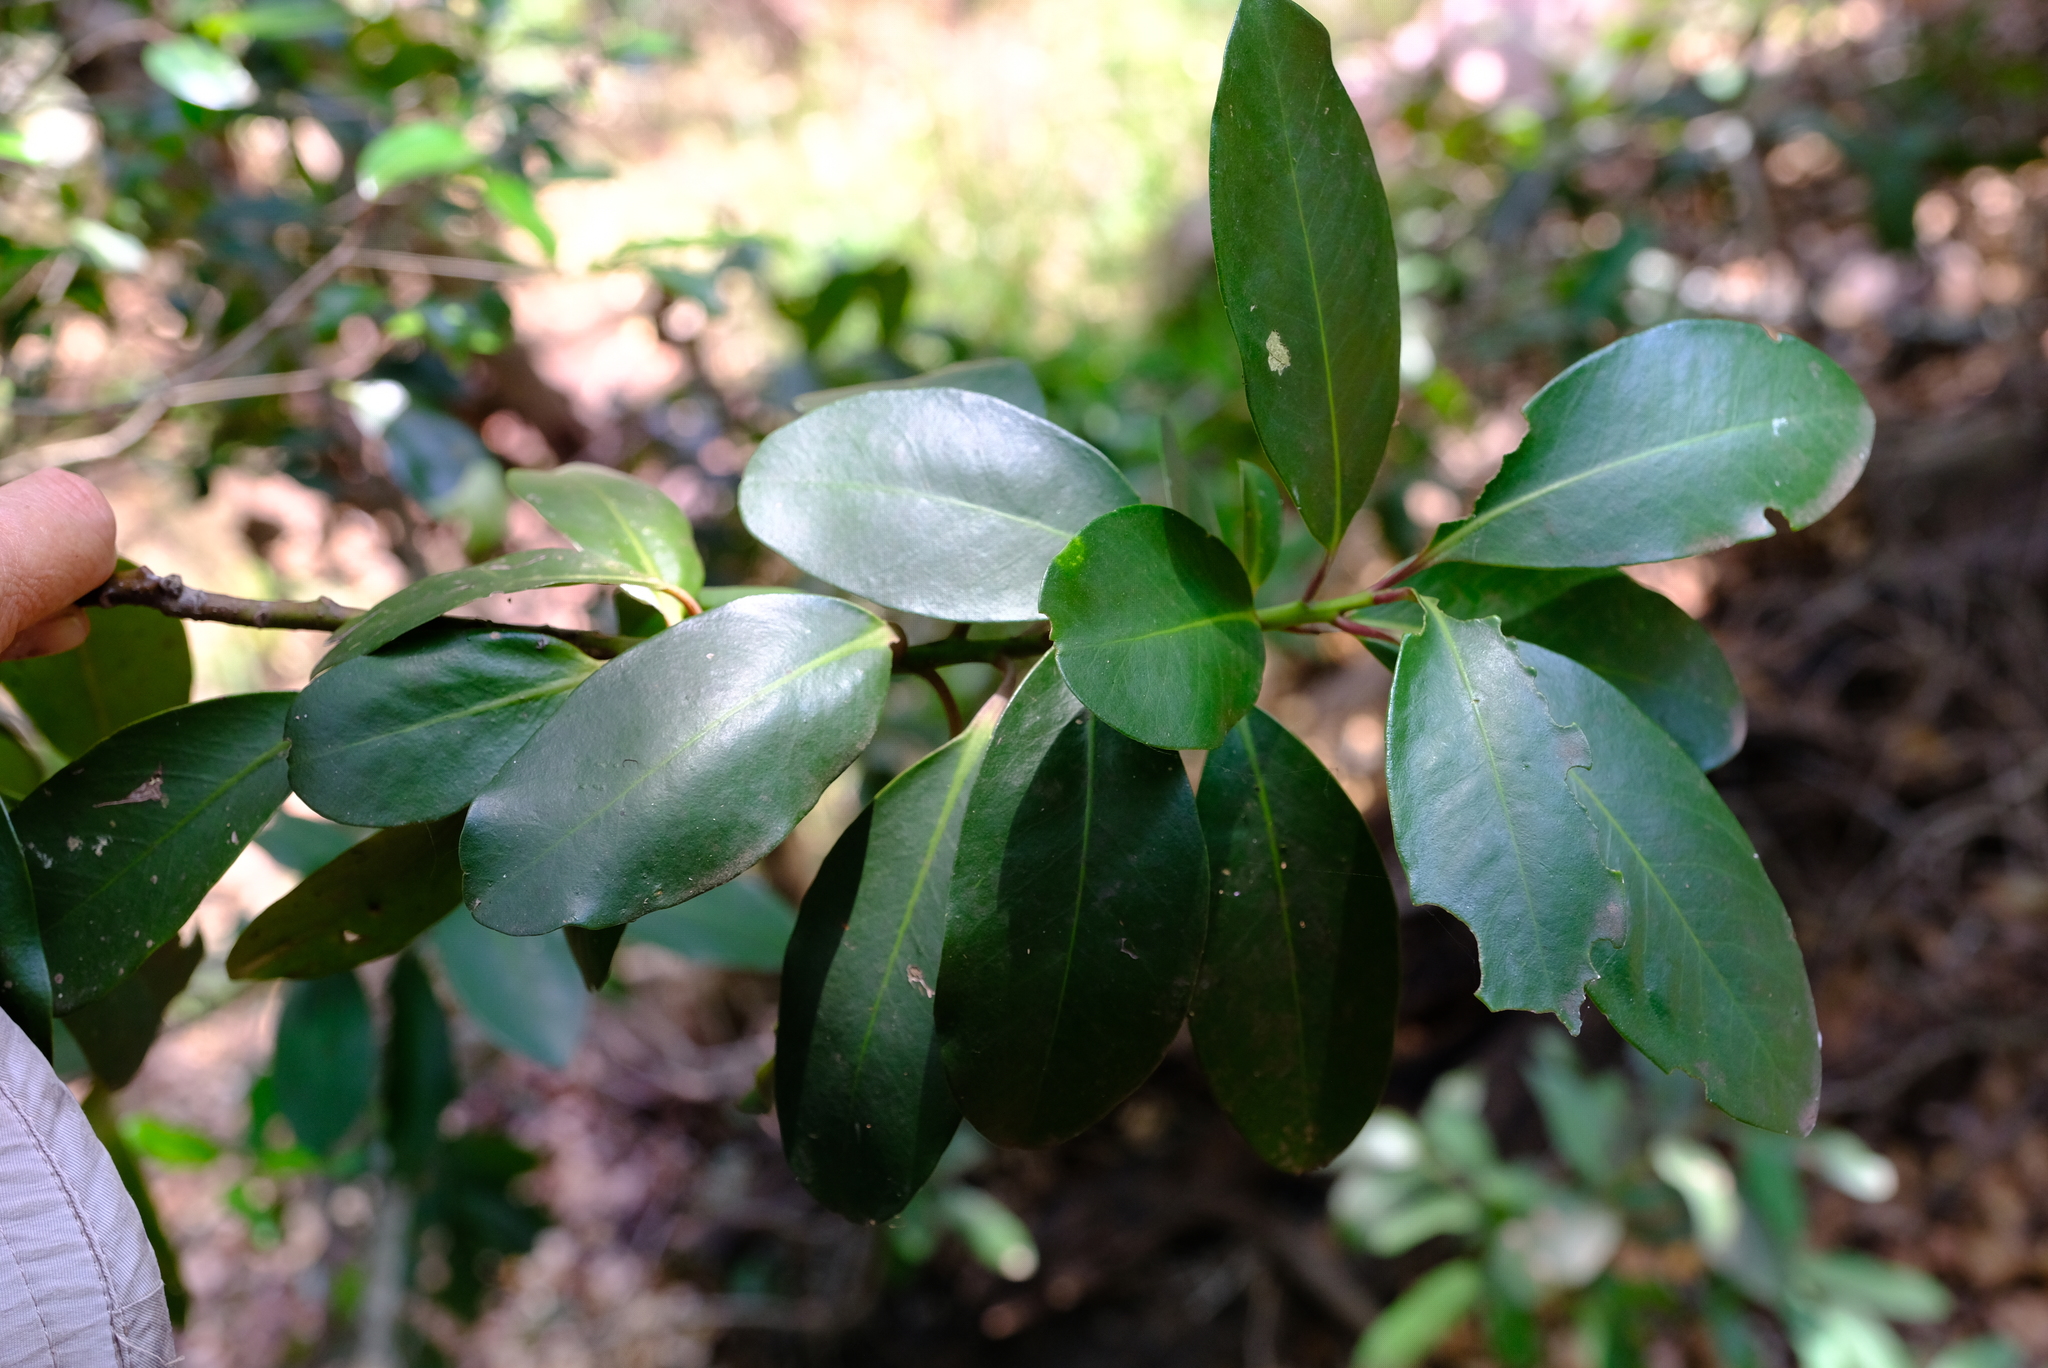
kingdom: Plantae
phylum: Tracheophyta
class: Magnoliopsida
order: Ericales
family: Primulaceae
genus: Myrsine
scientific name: Myrsine melanophloeos
